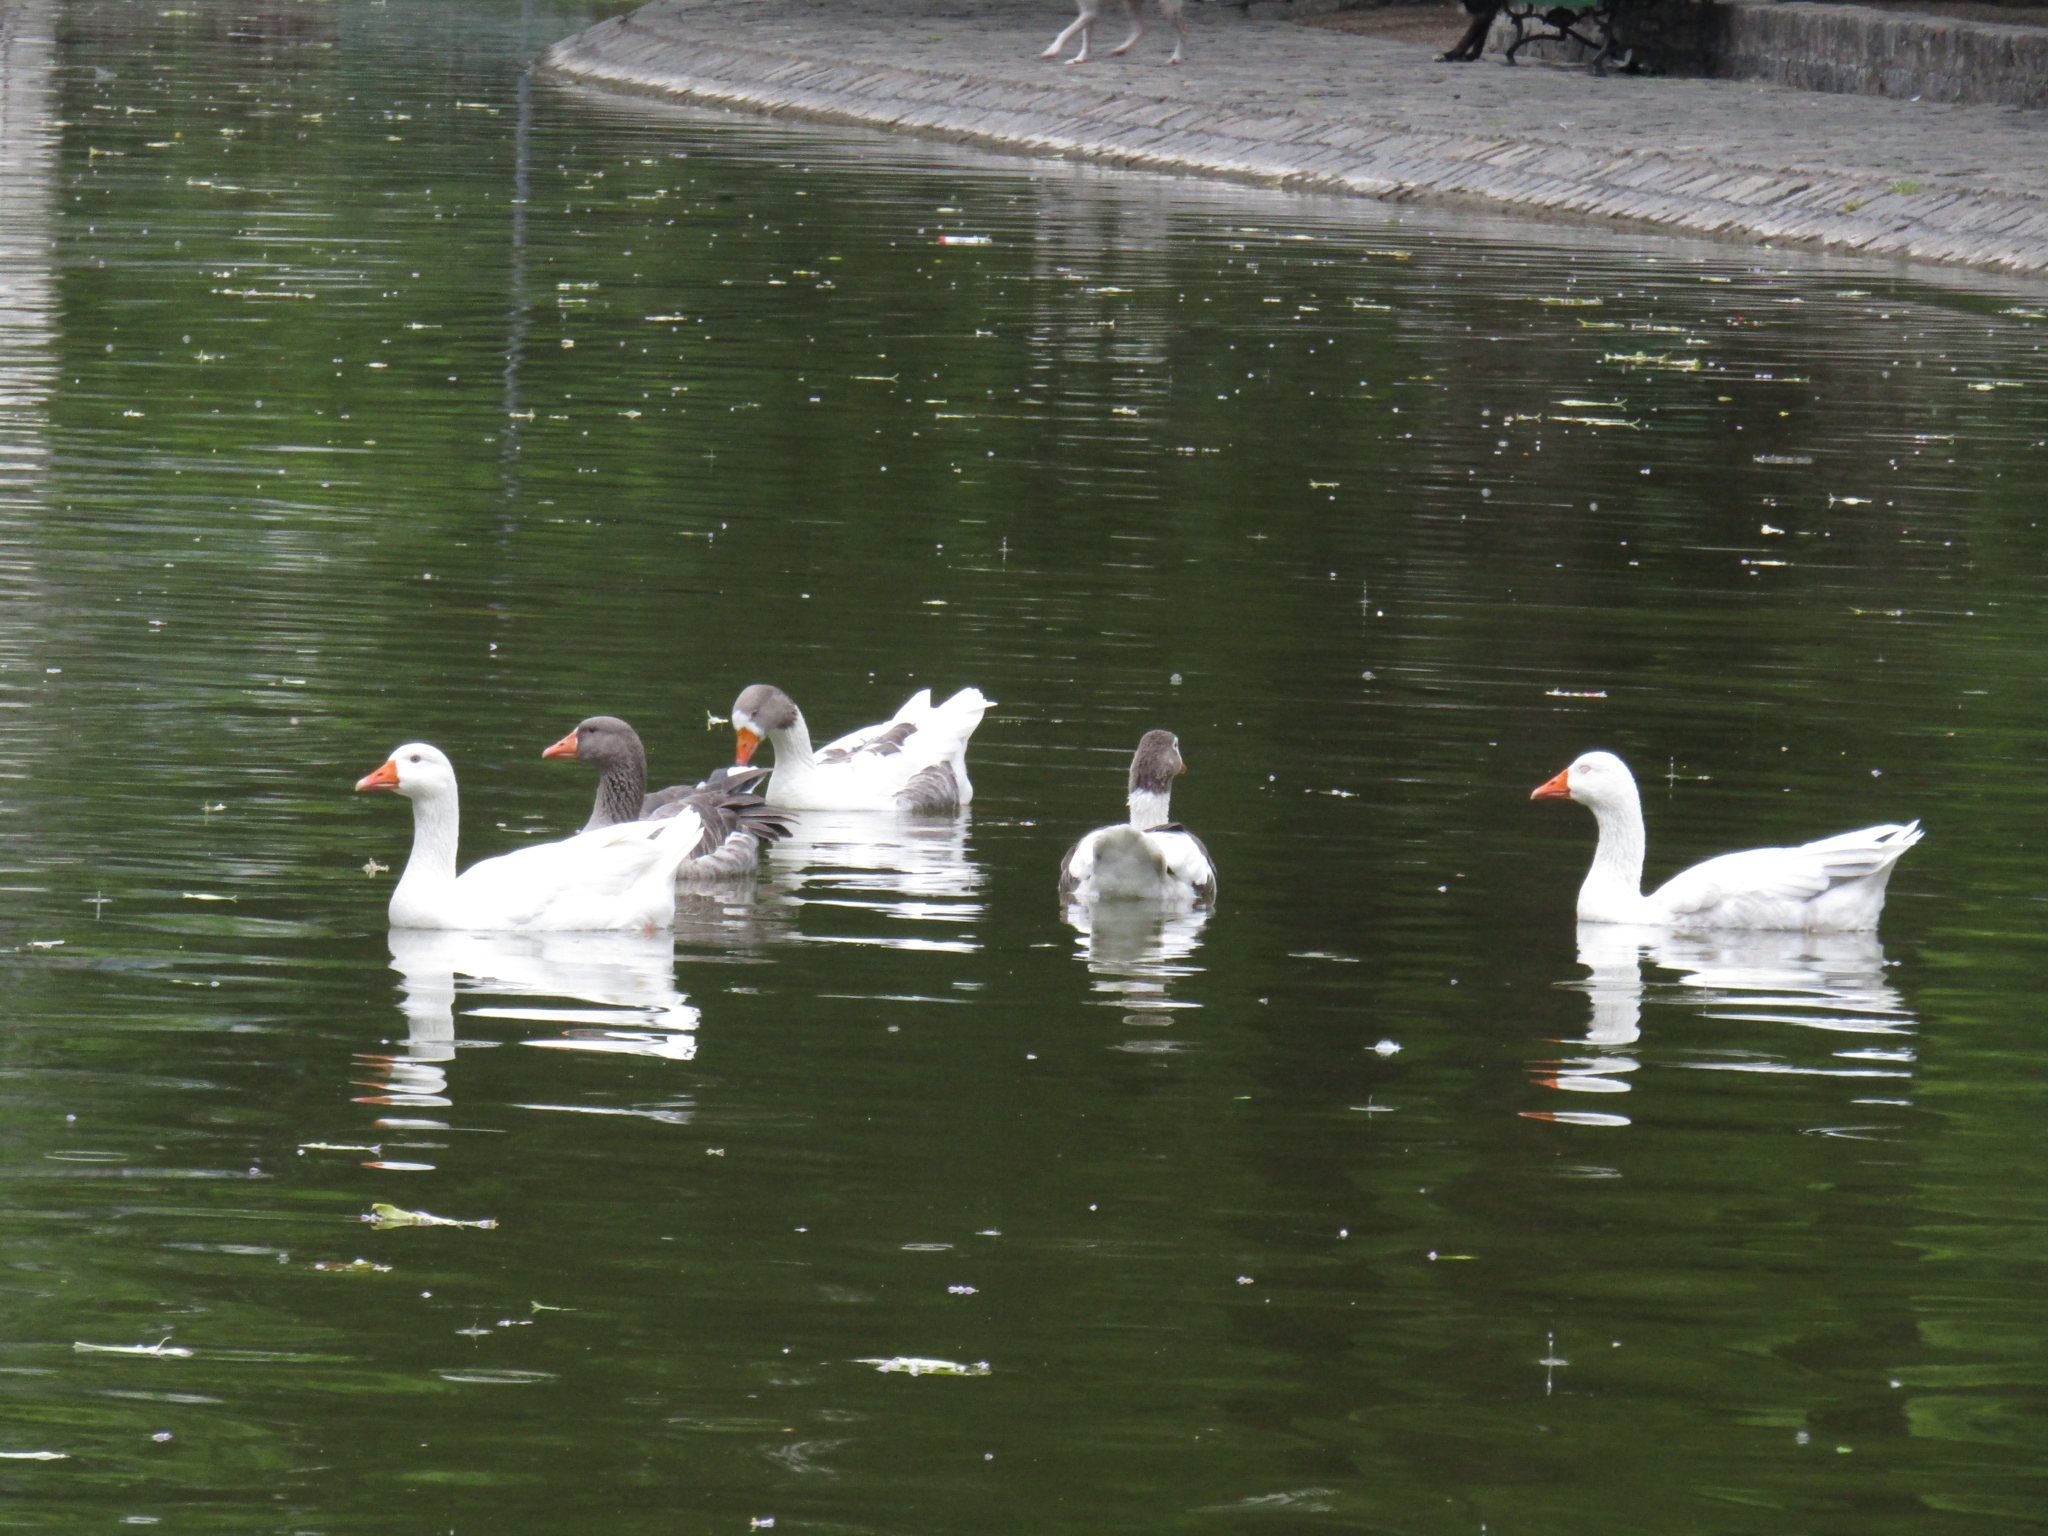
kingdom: Animalia
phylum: Chordata
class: Aves
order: Anseriformes
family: Anatidae
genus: Anser
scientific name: Anser anser
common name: Greylag goose
